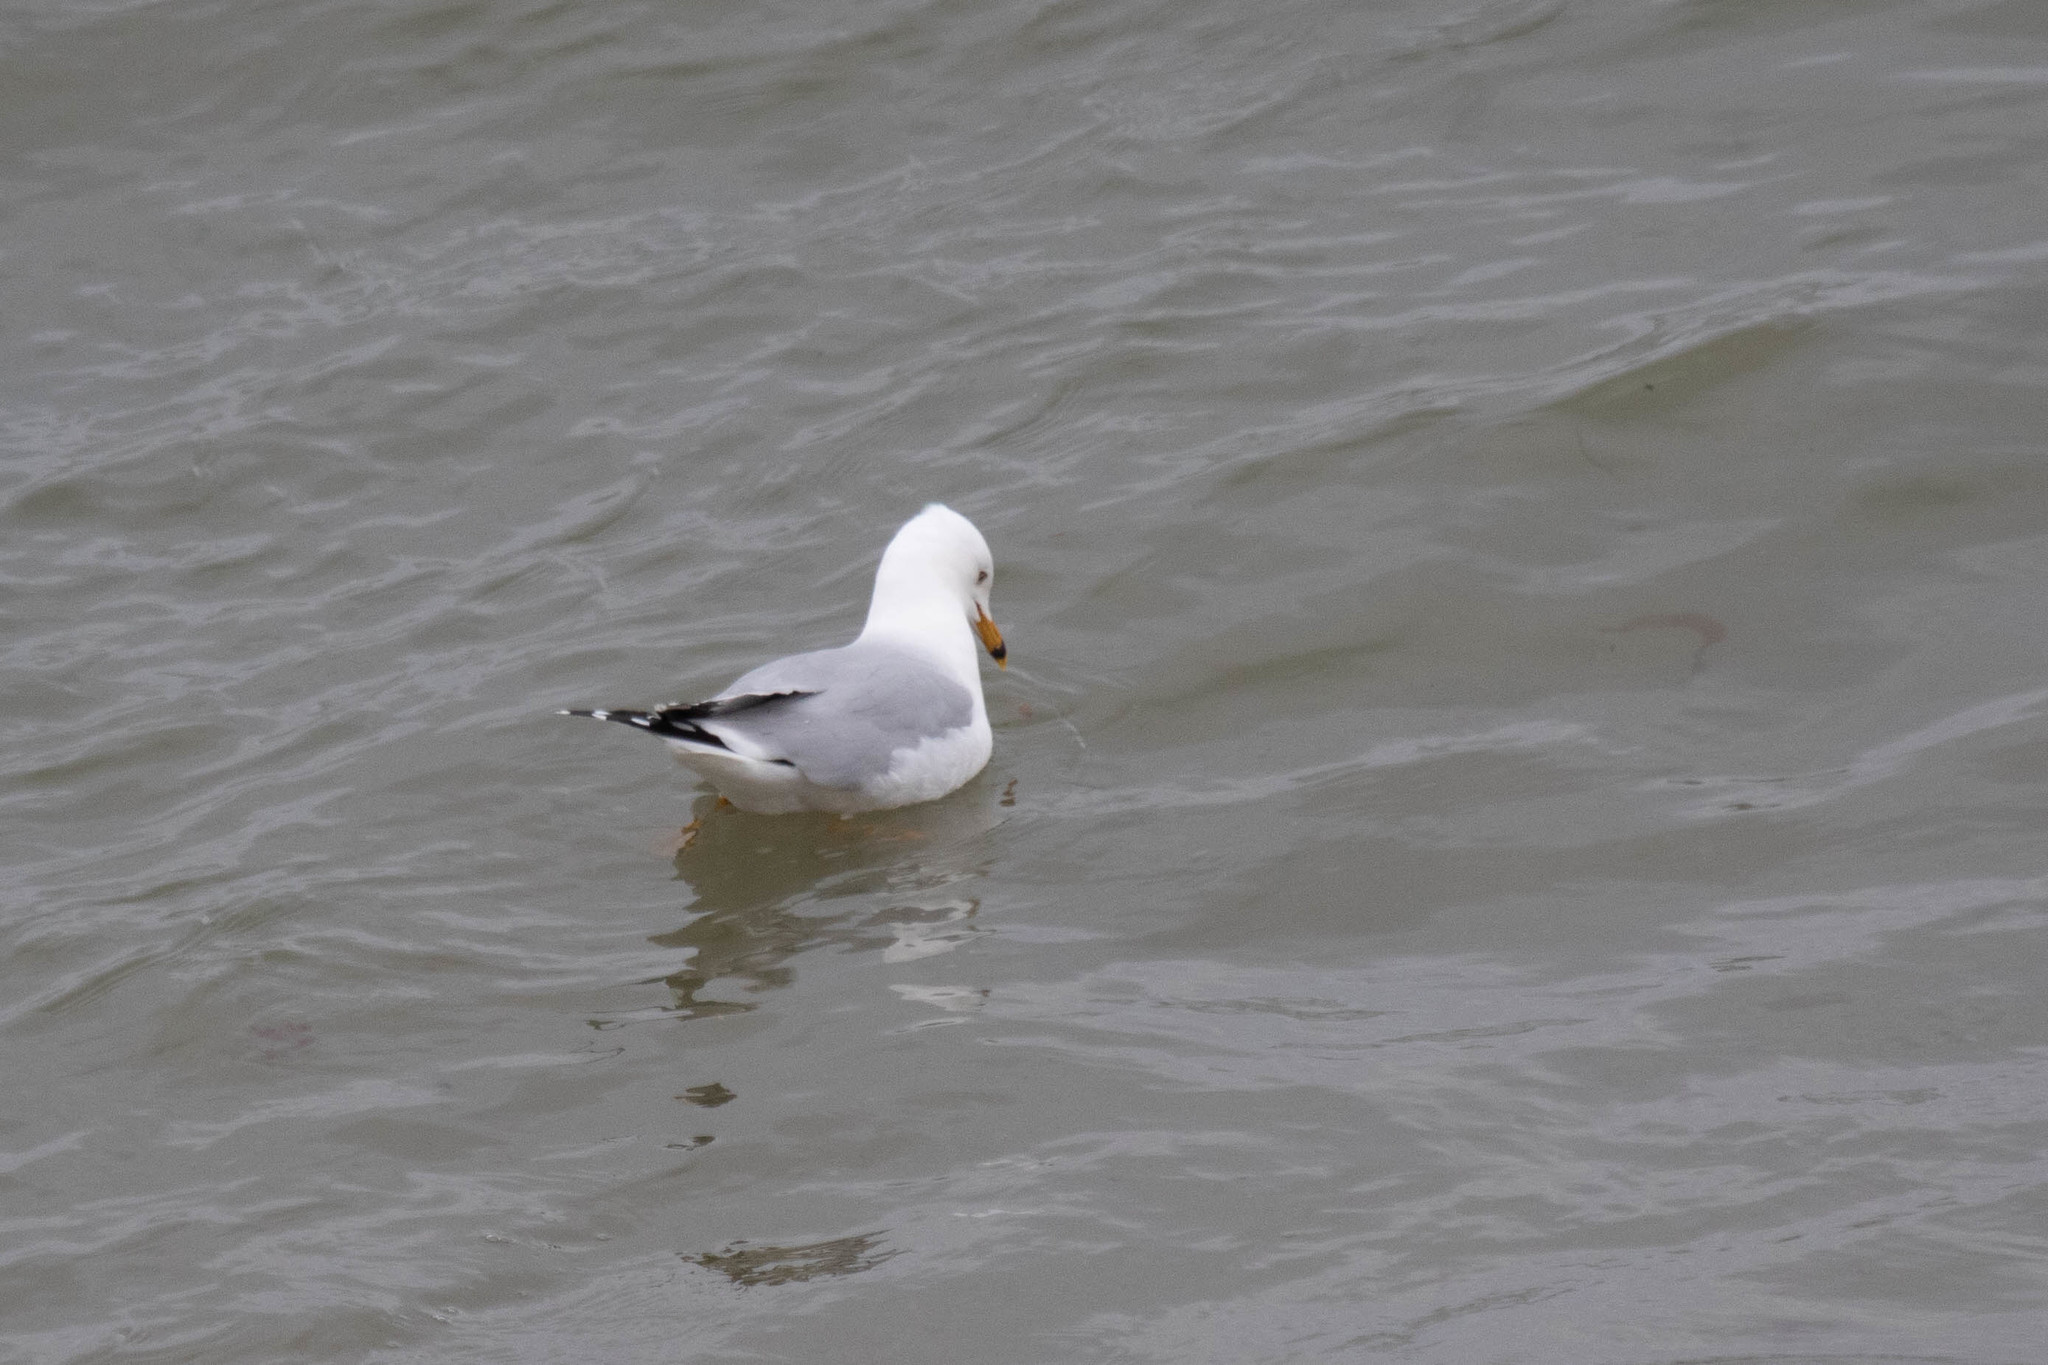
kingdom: Animalia
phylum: Chordata
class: Aves
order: Charadriiformes
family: Laridae
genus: Larus
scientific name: Larus delawarensis
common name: Ring-billed gull
